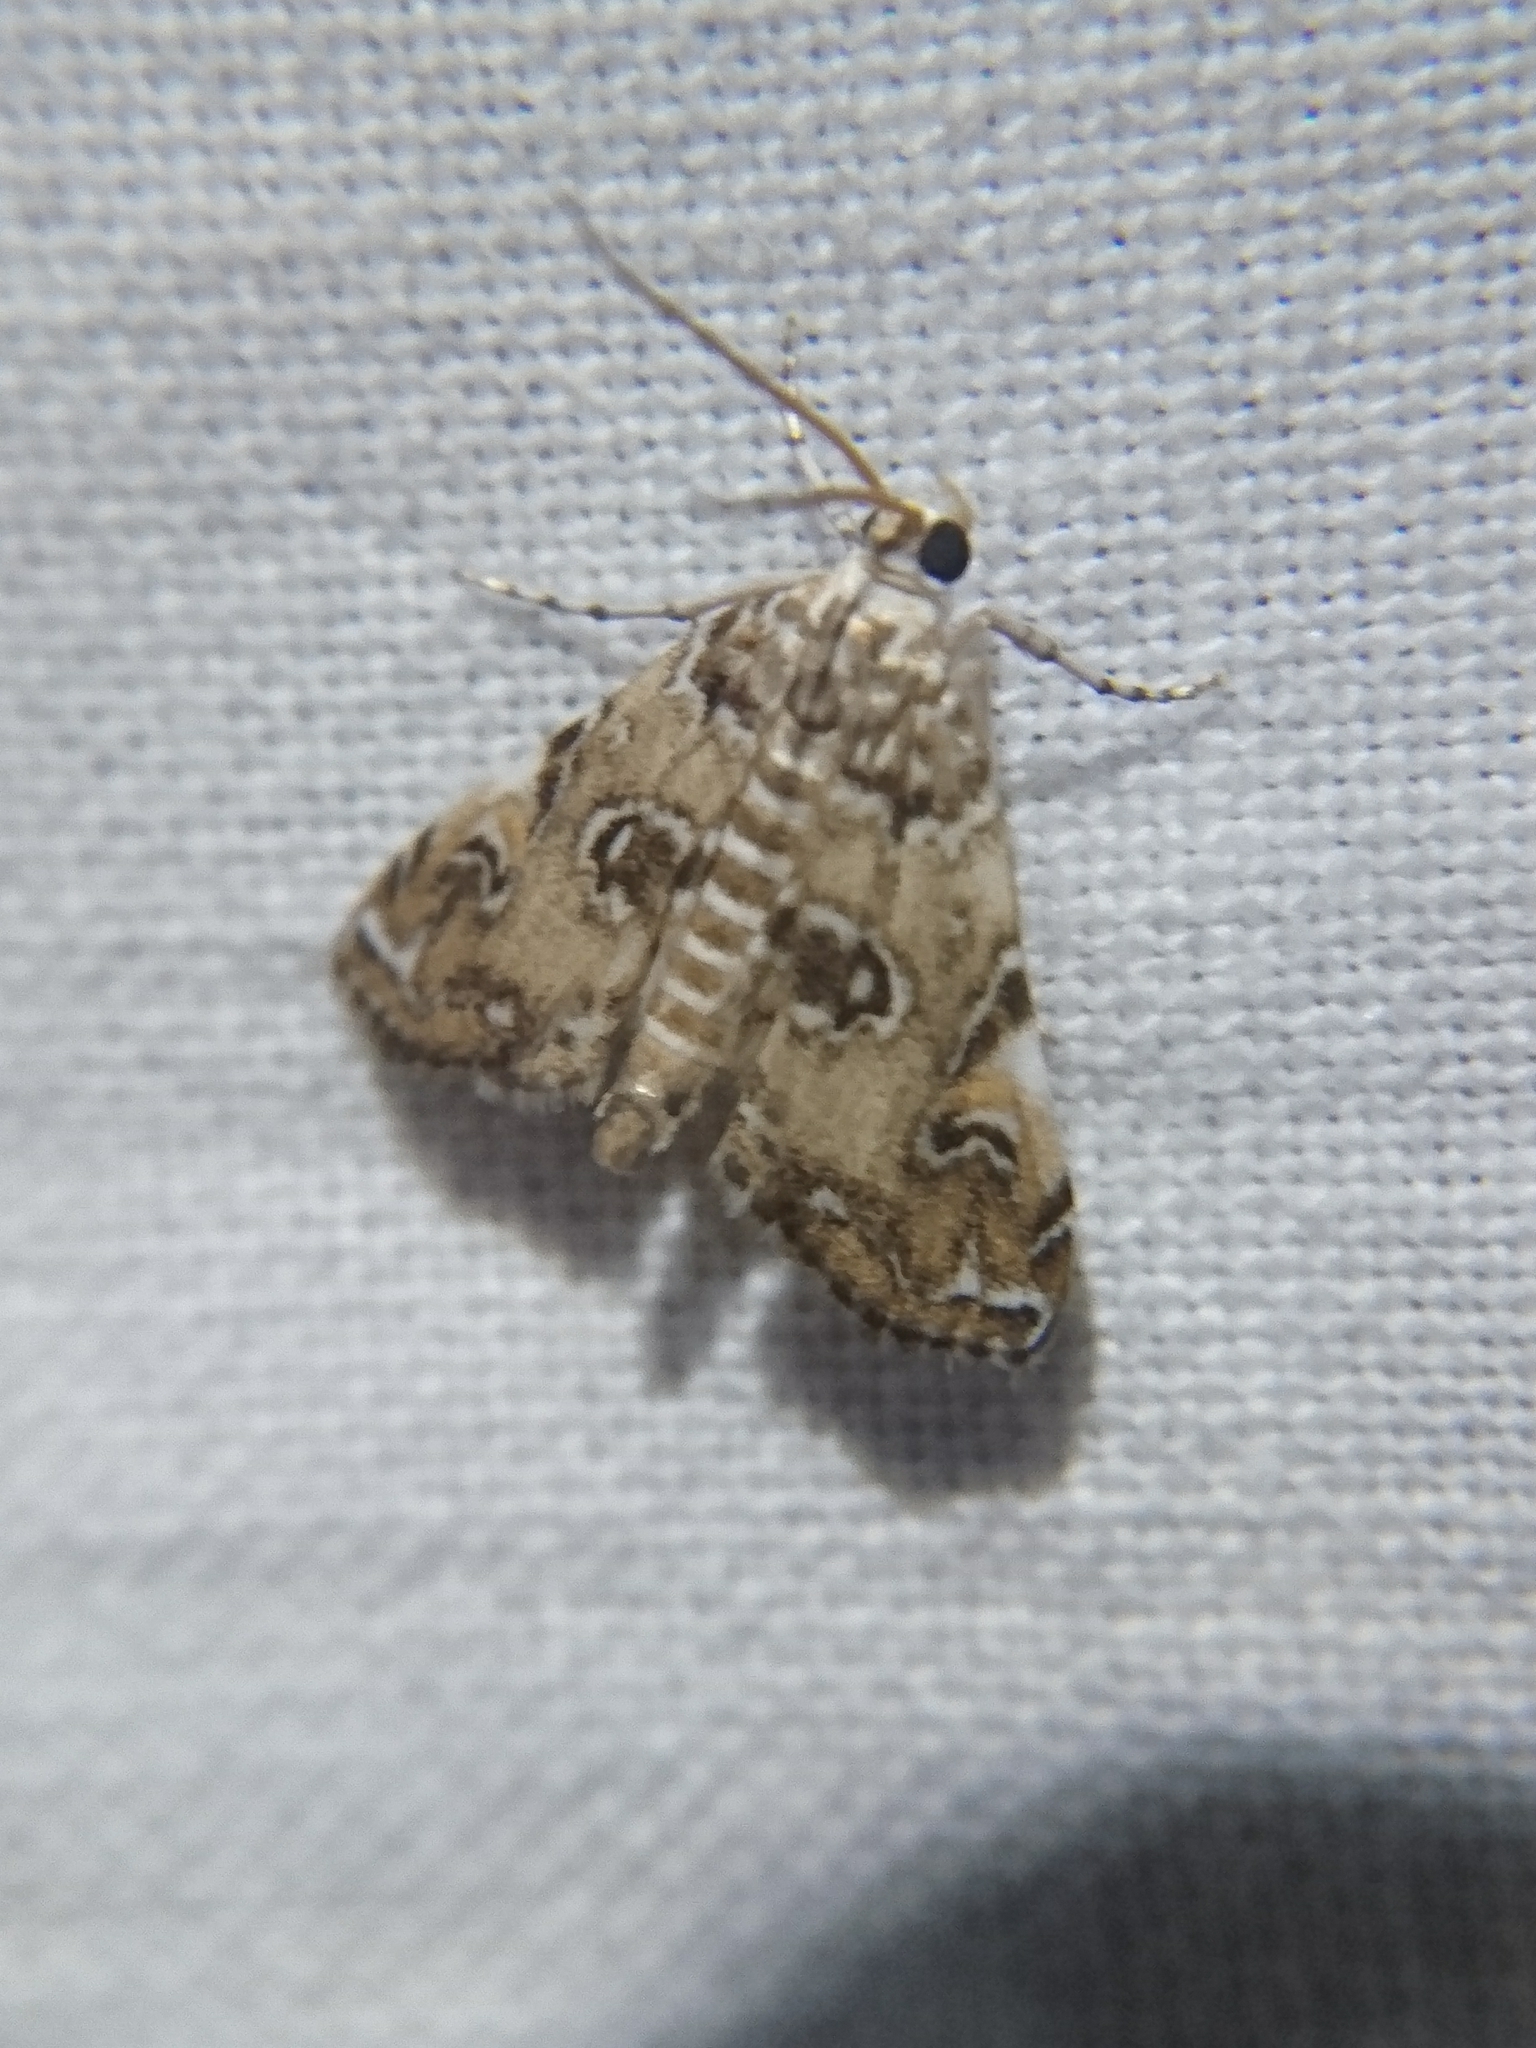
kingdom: Animalia
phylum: Arthropoda
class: Insecta
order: Lepidoptera
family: Crambidae
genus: Elophila
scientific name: Elophila gyralis
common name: Waterlily borer moth
